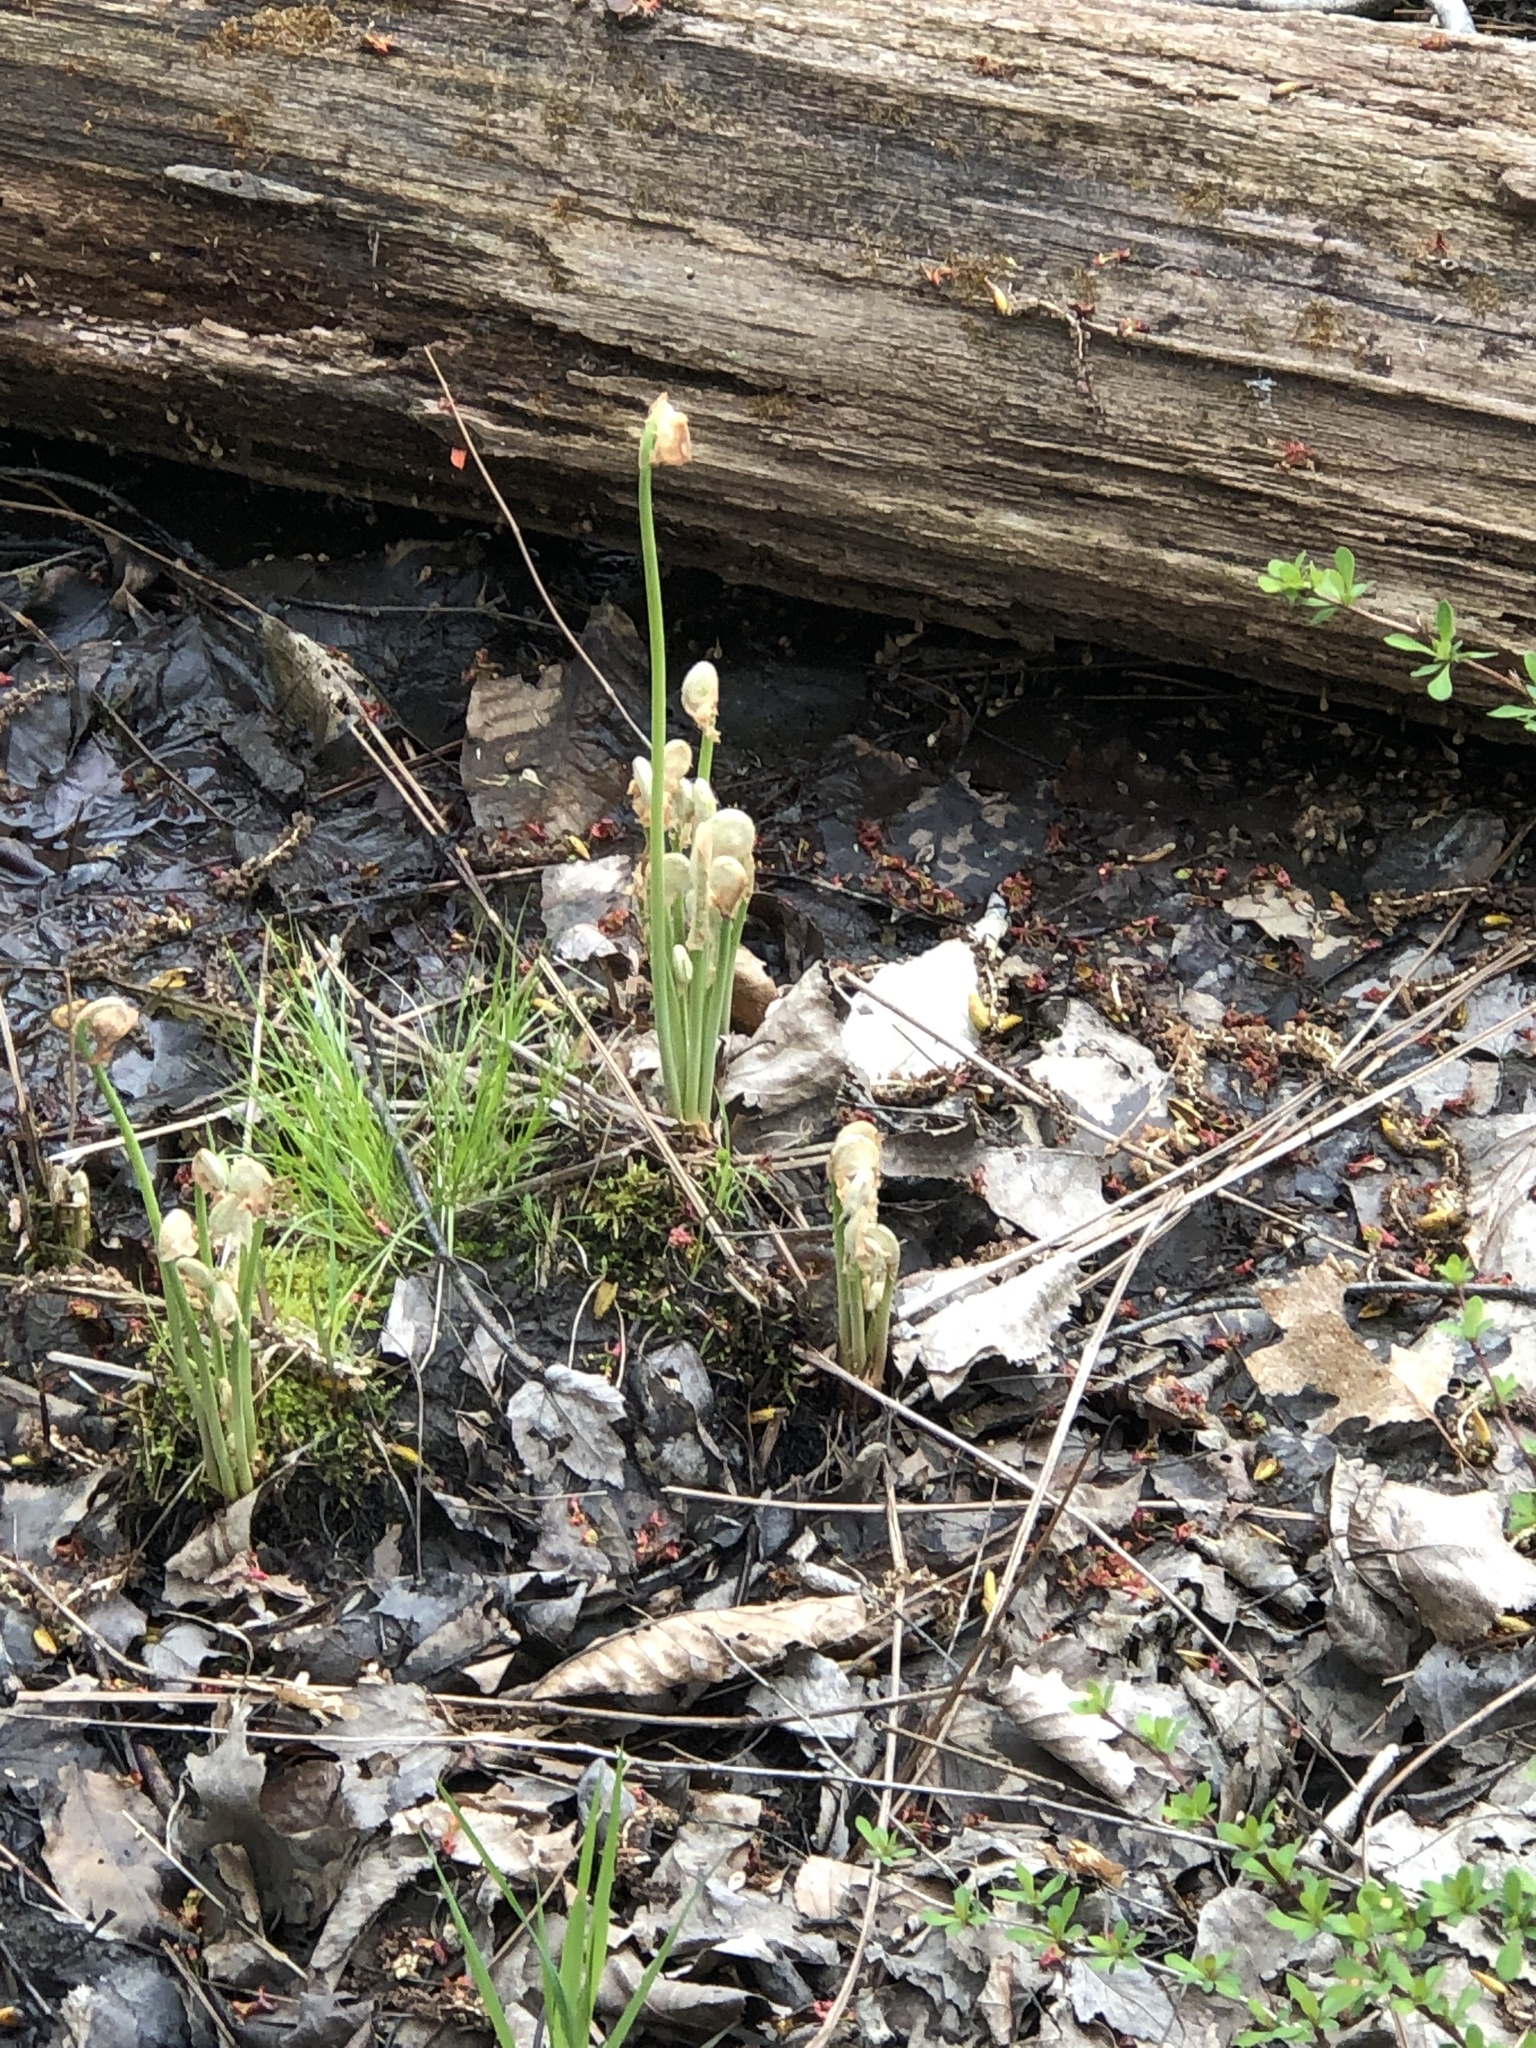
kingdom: Plantae
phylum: Tracheophyta
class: Polypodiopsida
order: Osmundales
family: Osmundaceae
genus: Osmunda
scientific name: Osmunda spectabilis
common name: American royal fern
